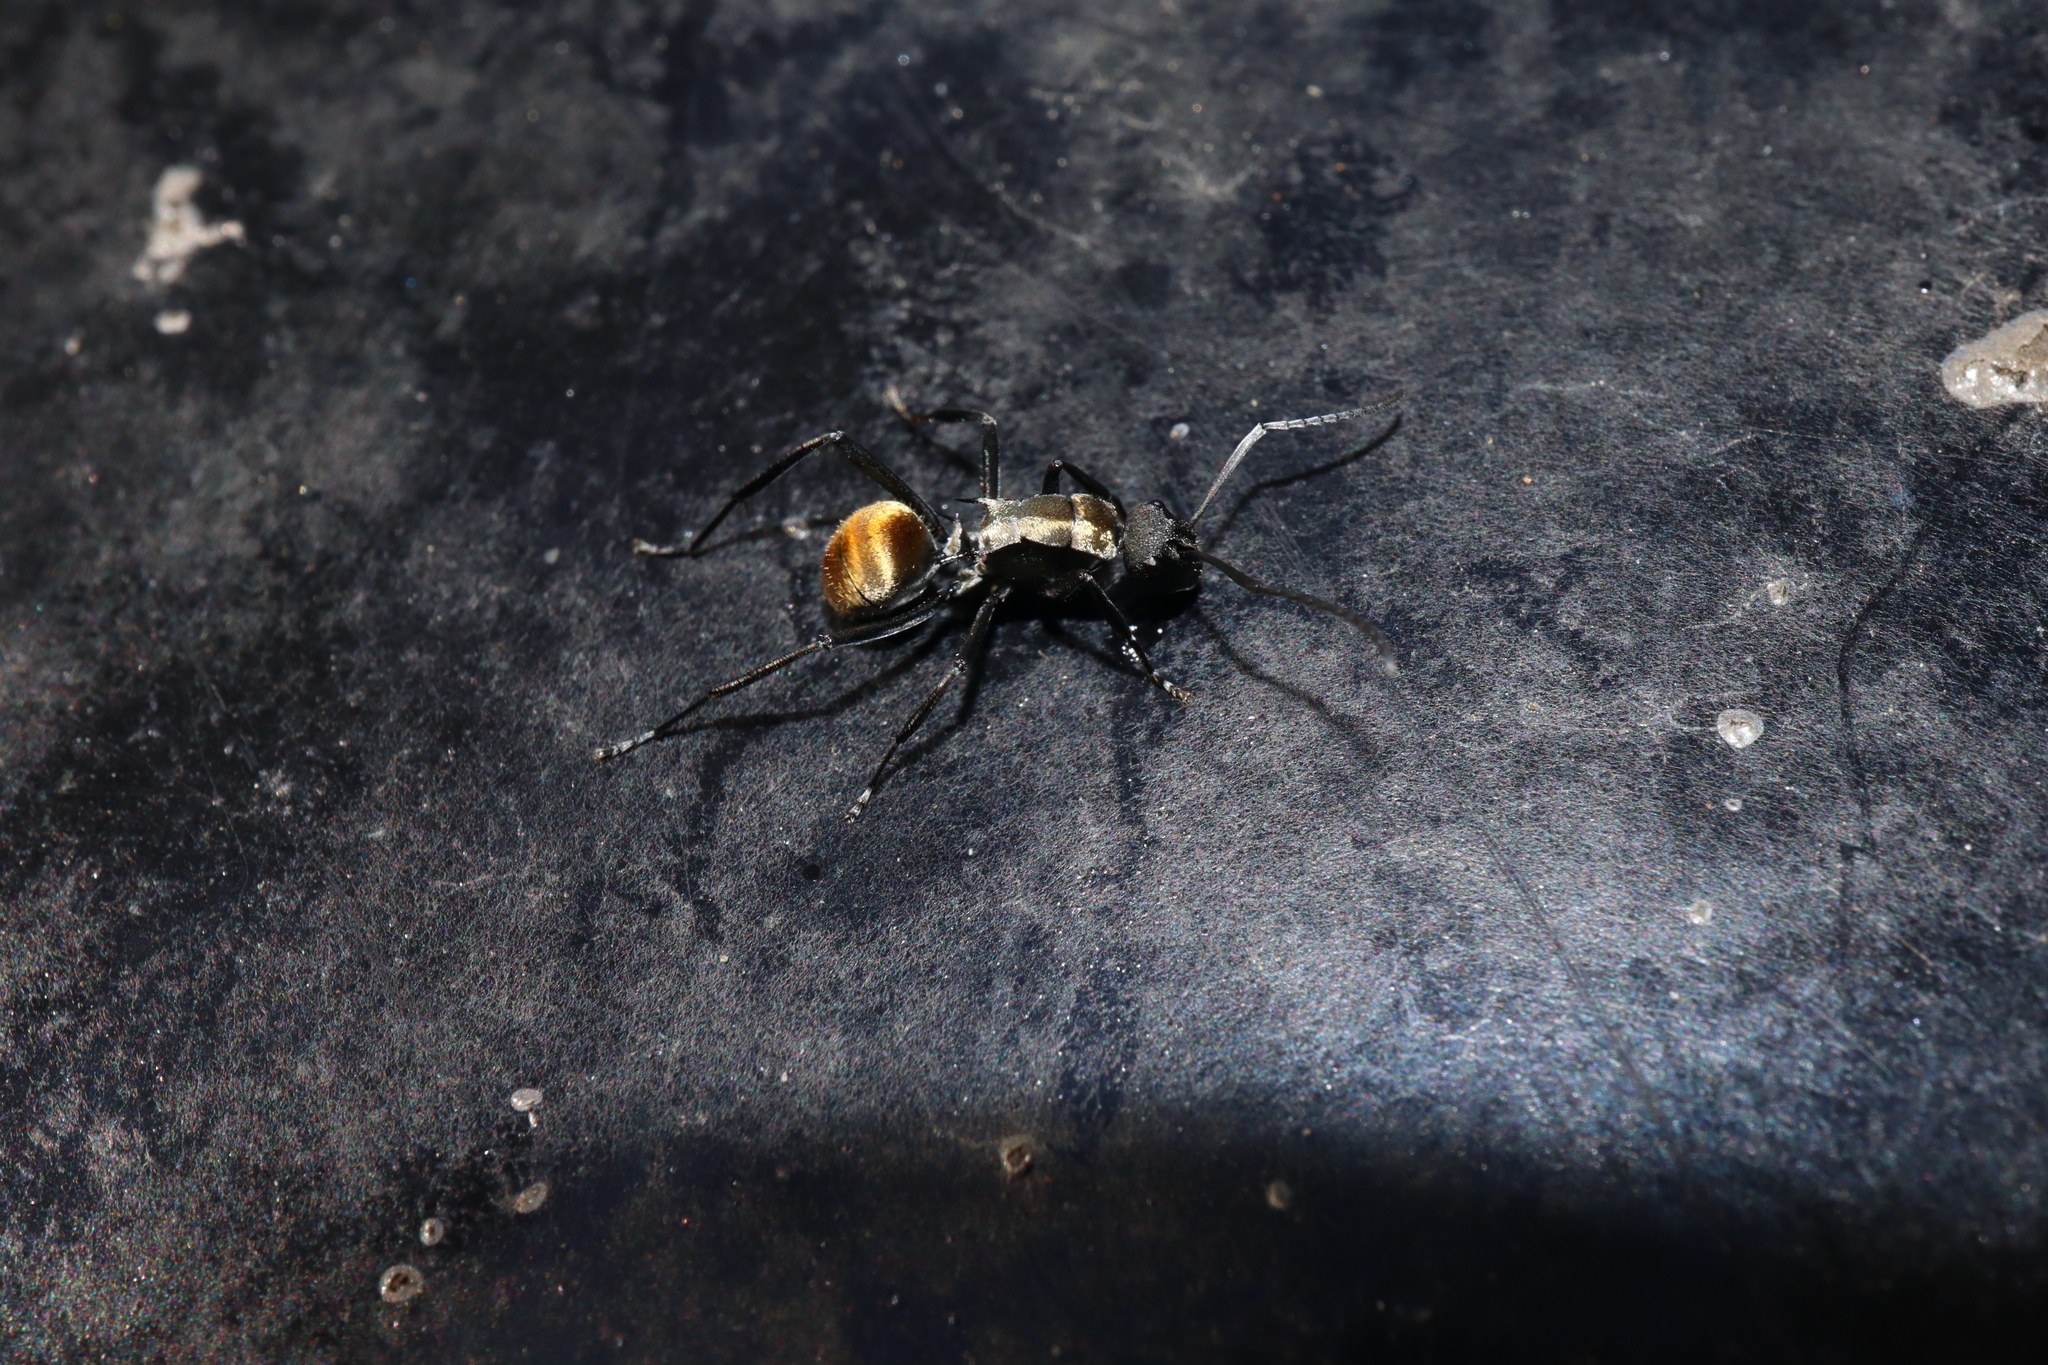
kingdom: Animalia
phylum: Arthropoda
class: Insecta
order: Hymenoptera
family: Formicidae
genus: Polyrhachis
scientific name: Polyrhachis ammon
